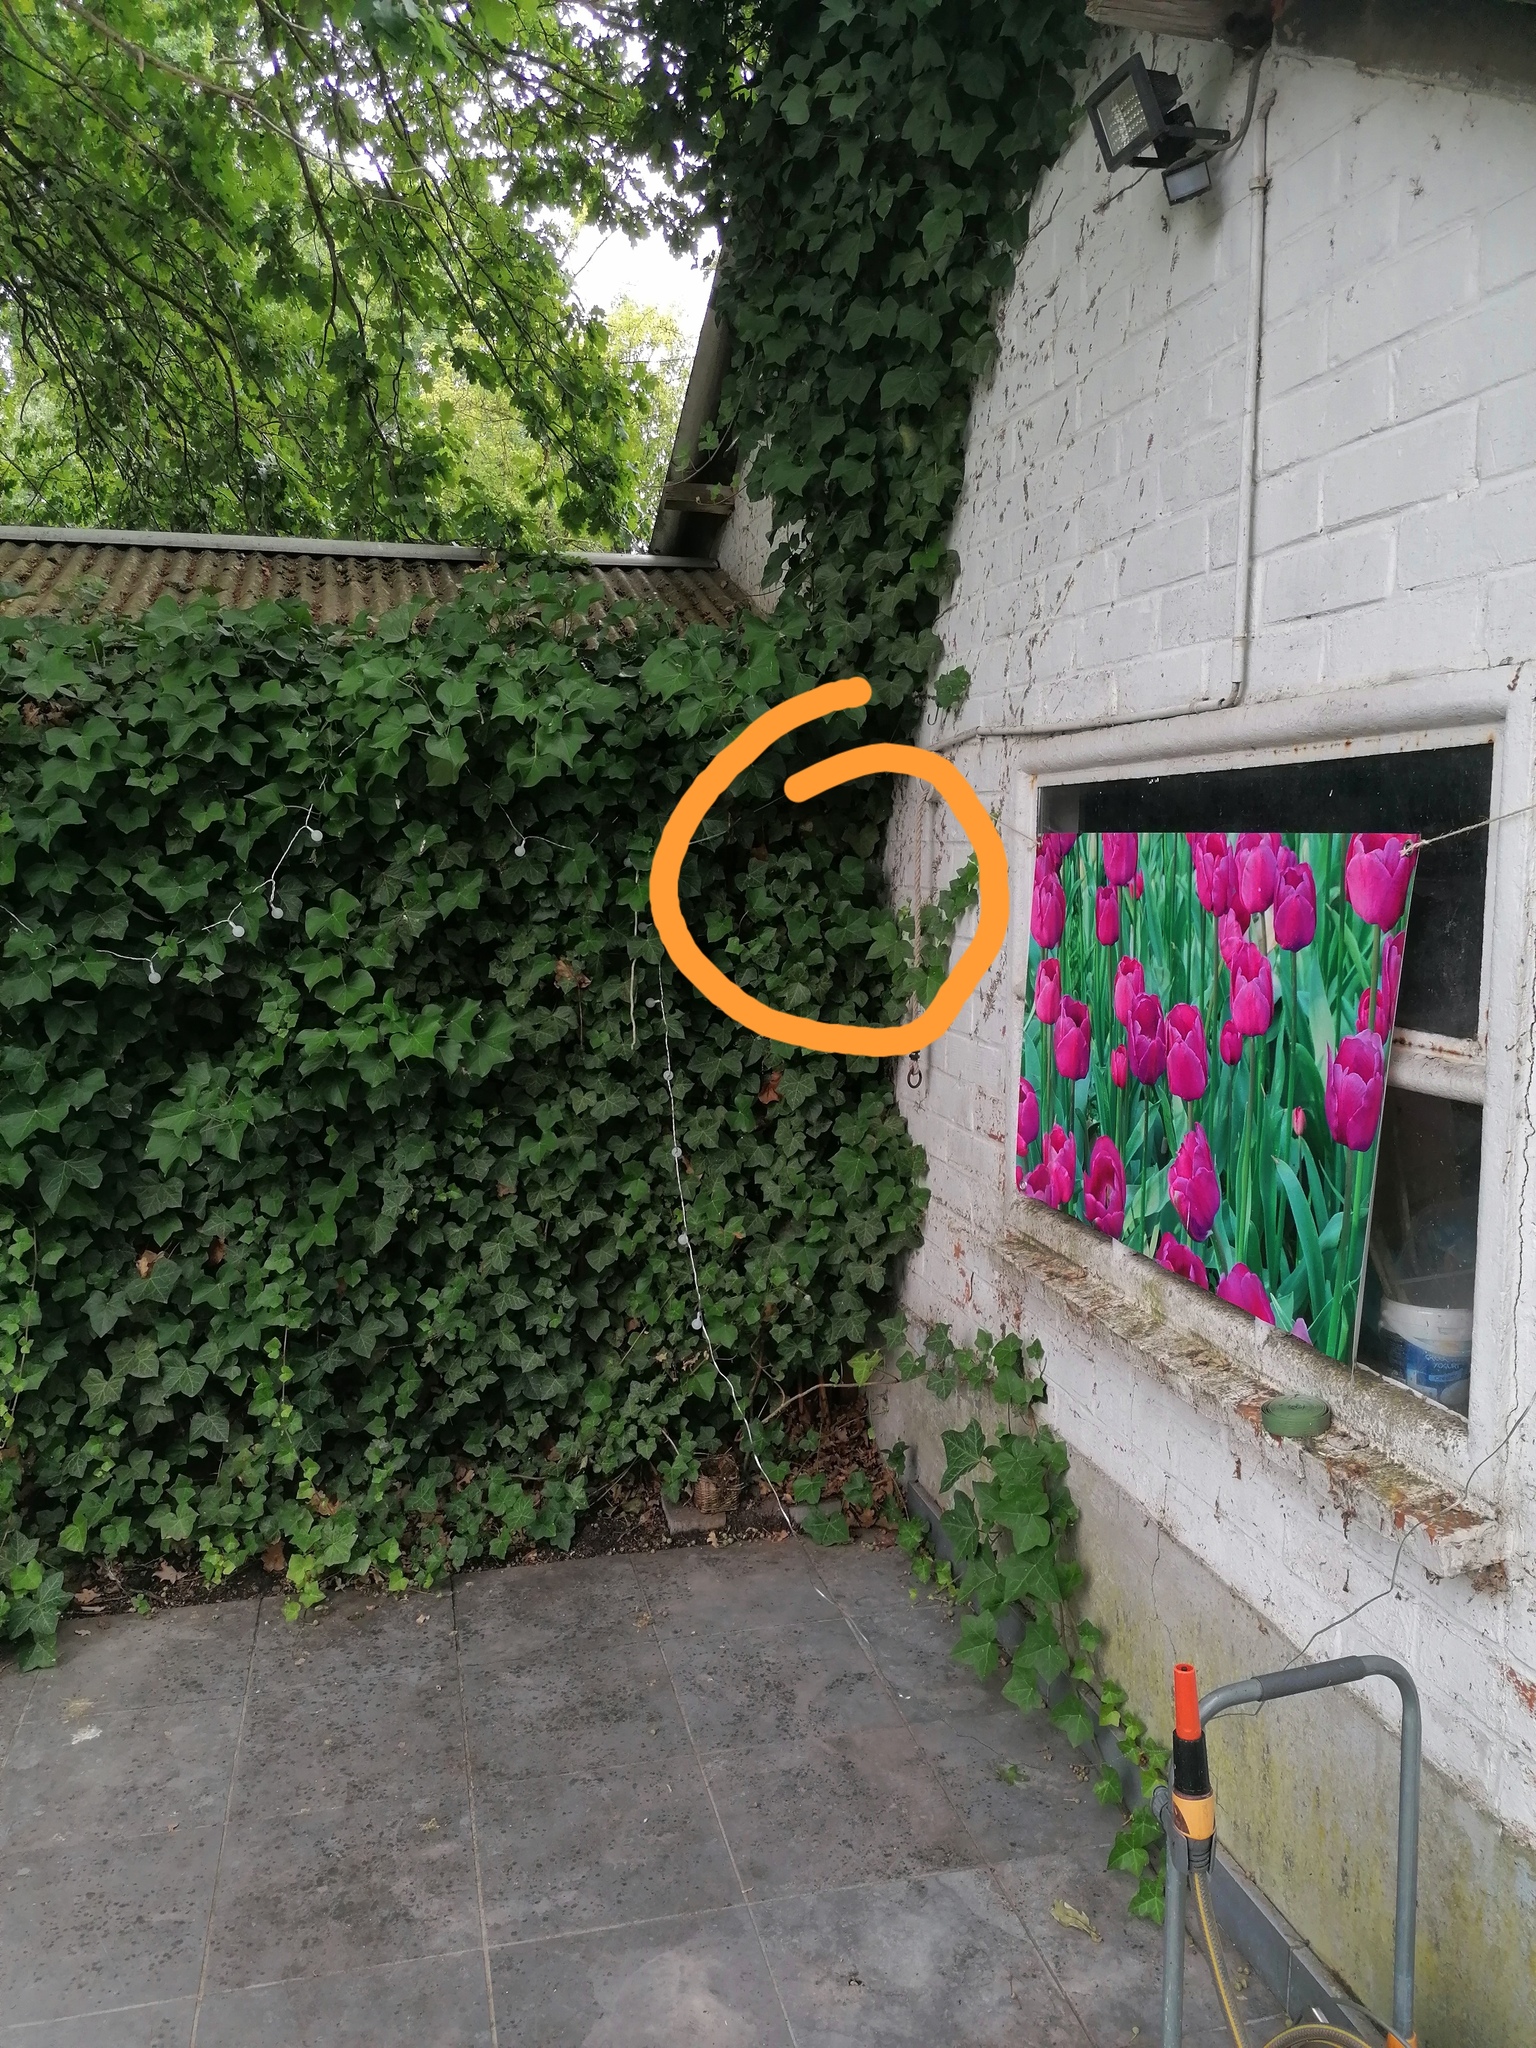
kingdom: Animalia
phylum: Arthropoda
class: Insecta
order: Hymenoptera
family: Vespidae
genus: Vespa
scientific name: Vespa velutina
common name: Asian hornet
